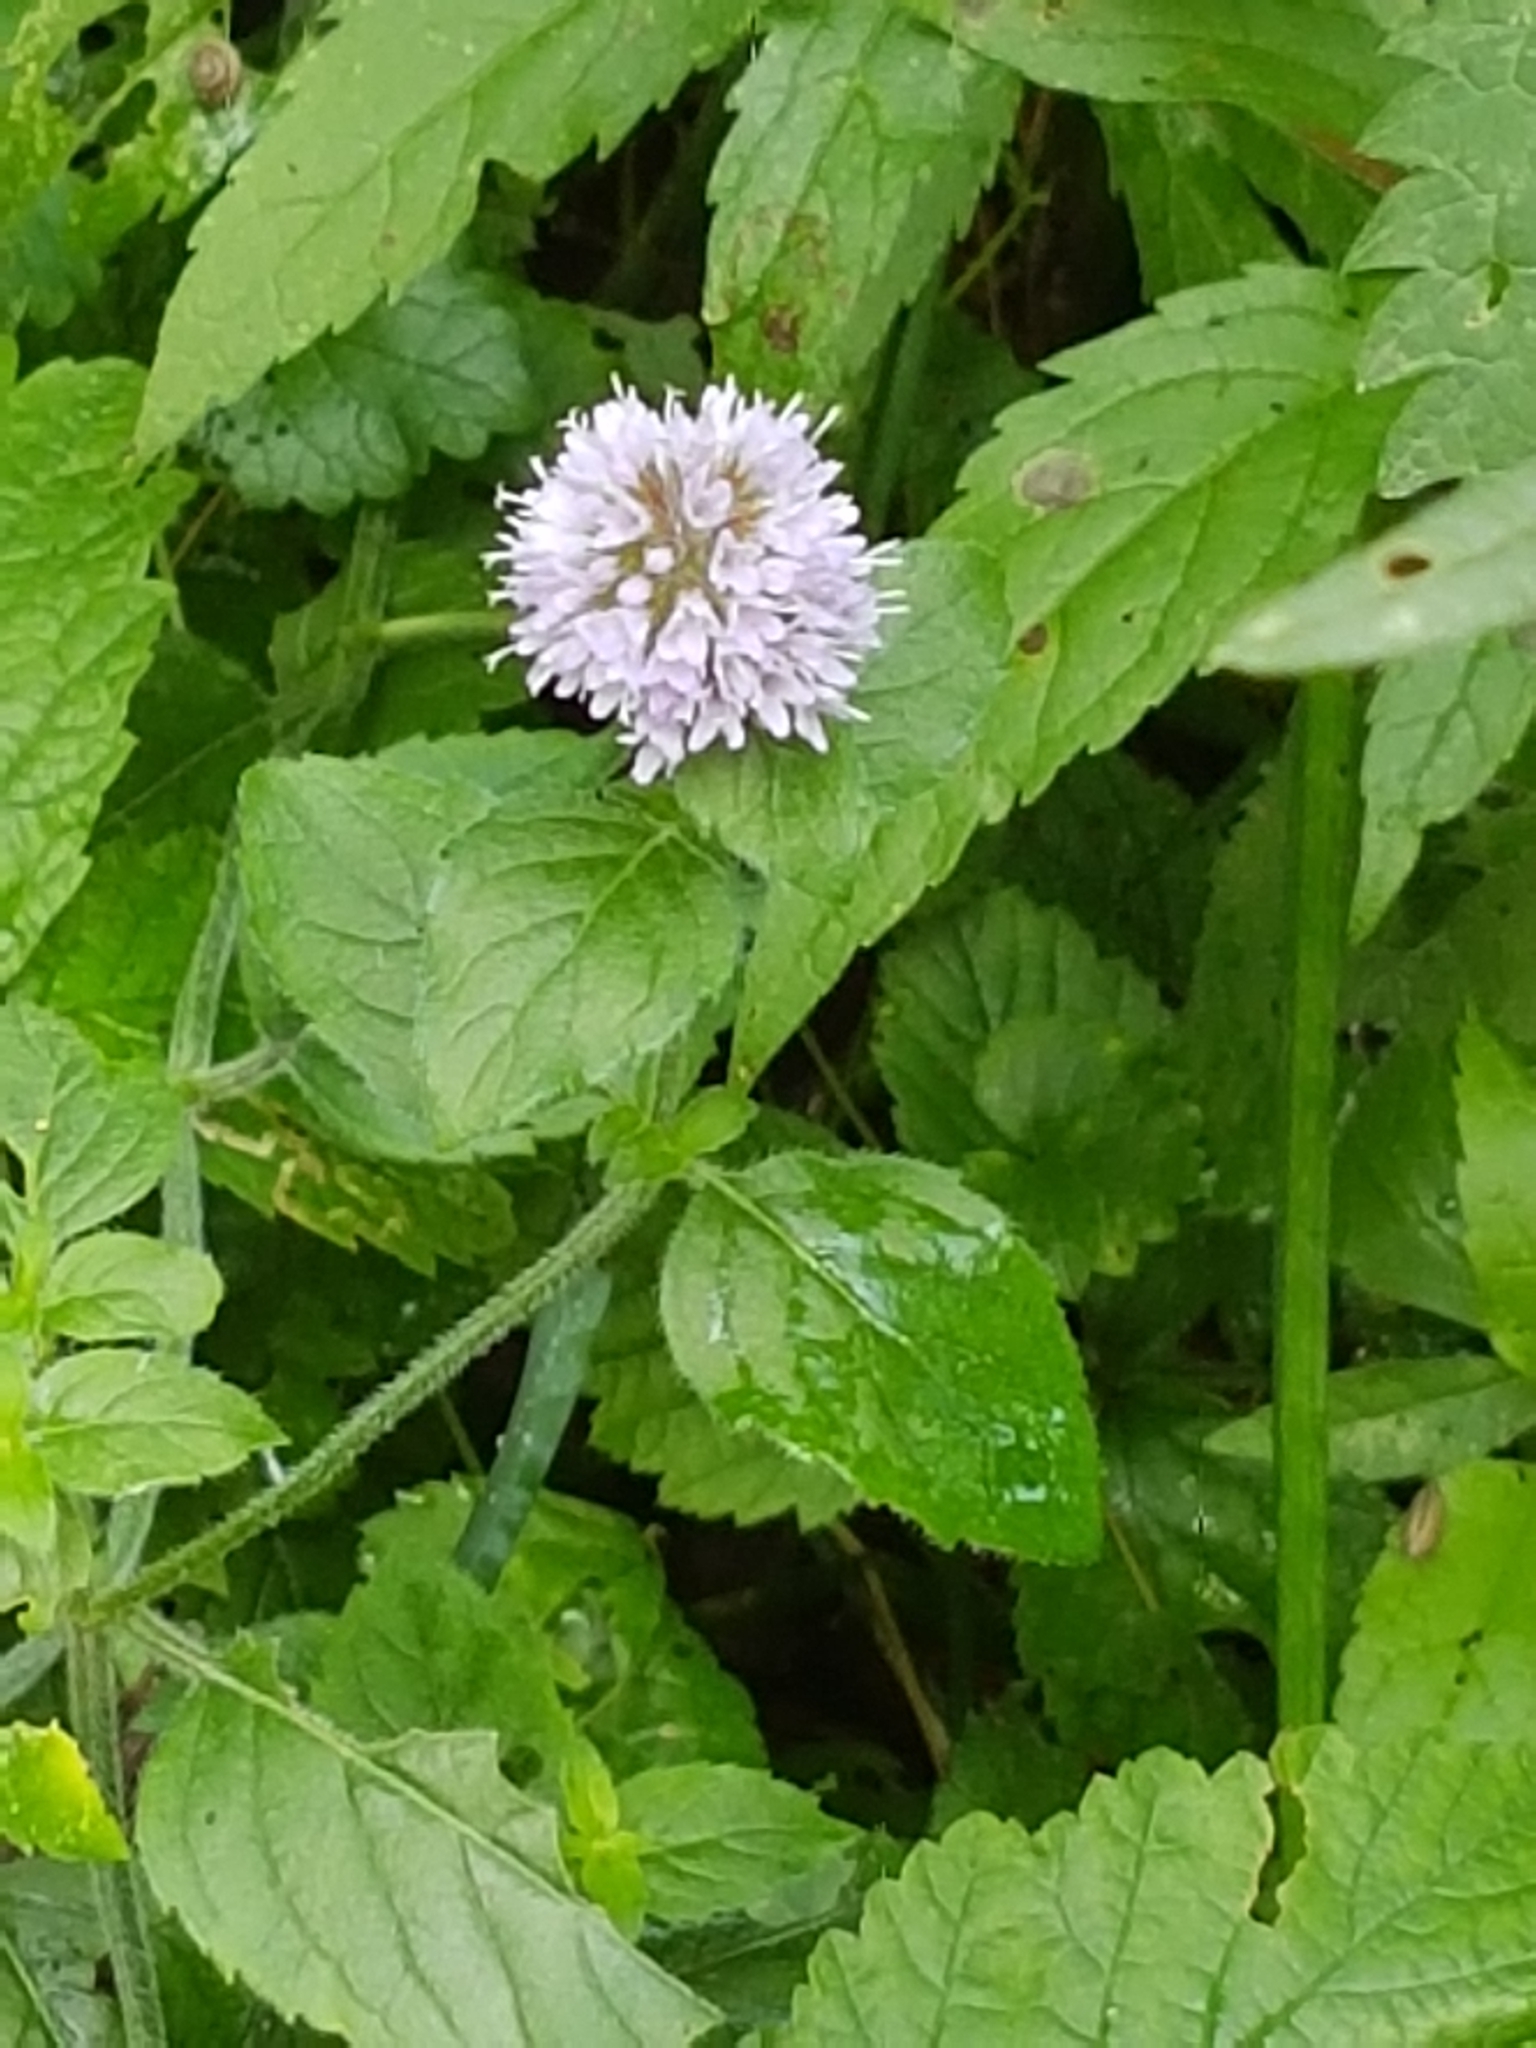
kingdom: Plantae
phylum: Tracheophyta
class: Magnoliopsida
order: Lamiales
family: Lamiaceae
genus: Mentha
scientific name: Mentha aquatica
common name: Water mint
